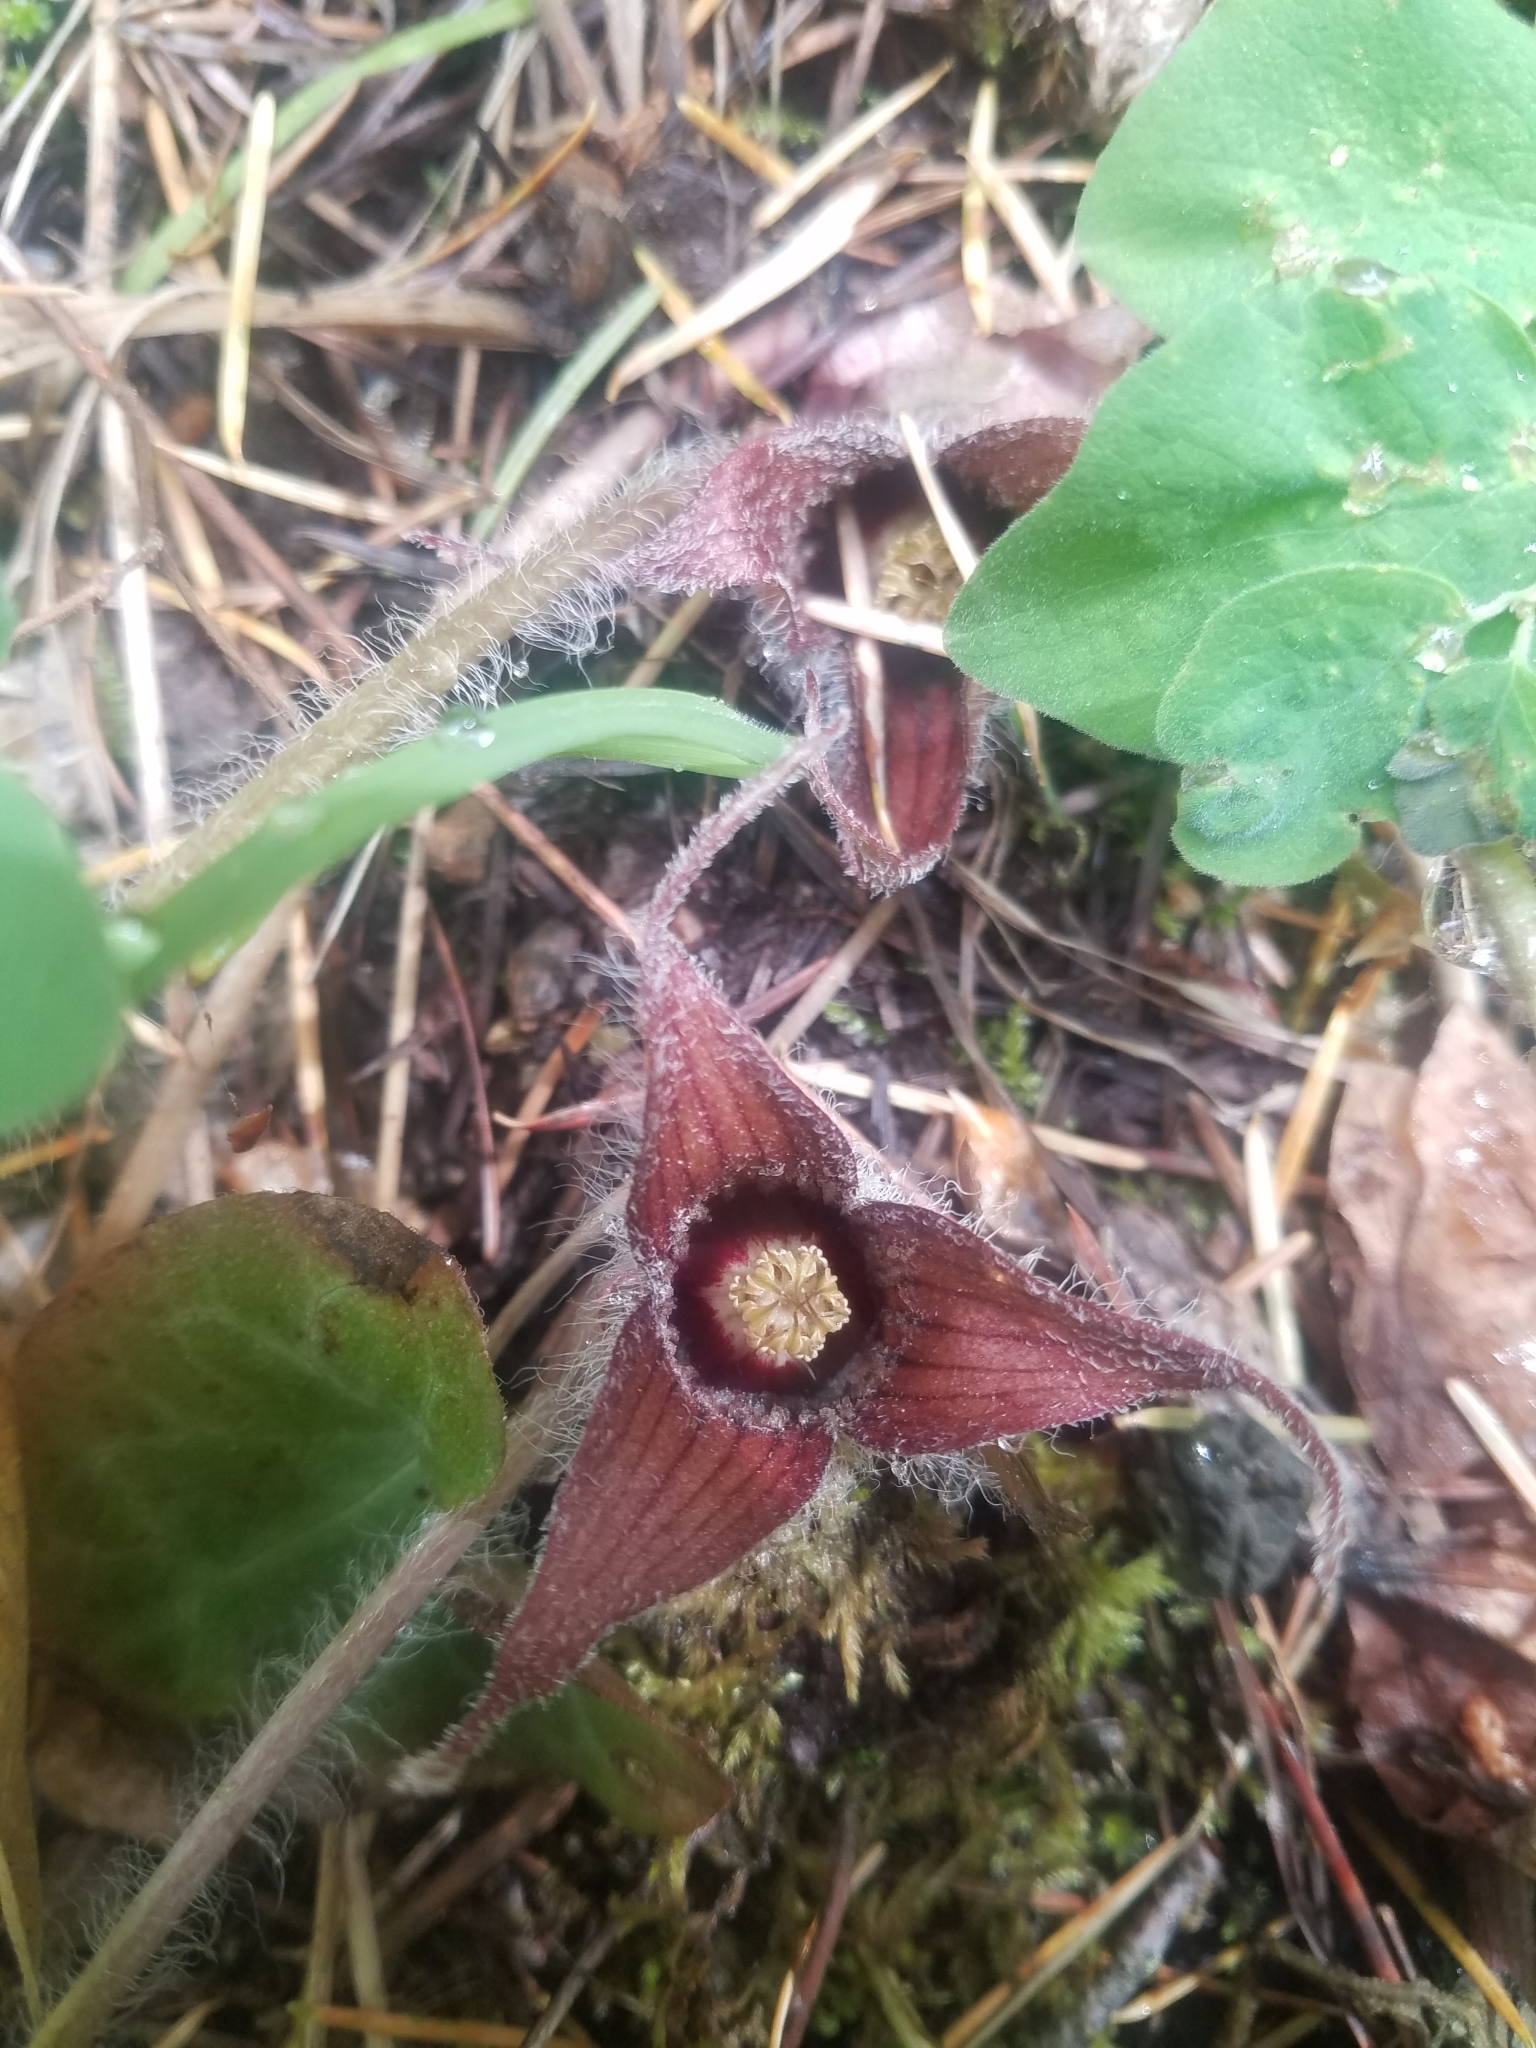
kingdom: Plantae
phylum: Tracheophyta
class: Magnoliopsida
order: Piperales
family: Aristolochiaceae
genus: Asarum
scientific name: Asarum hartwegii
